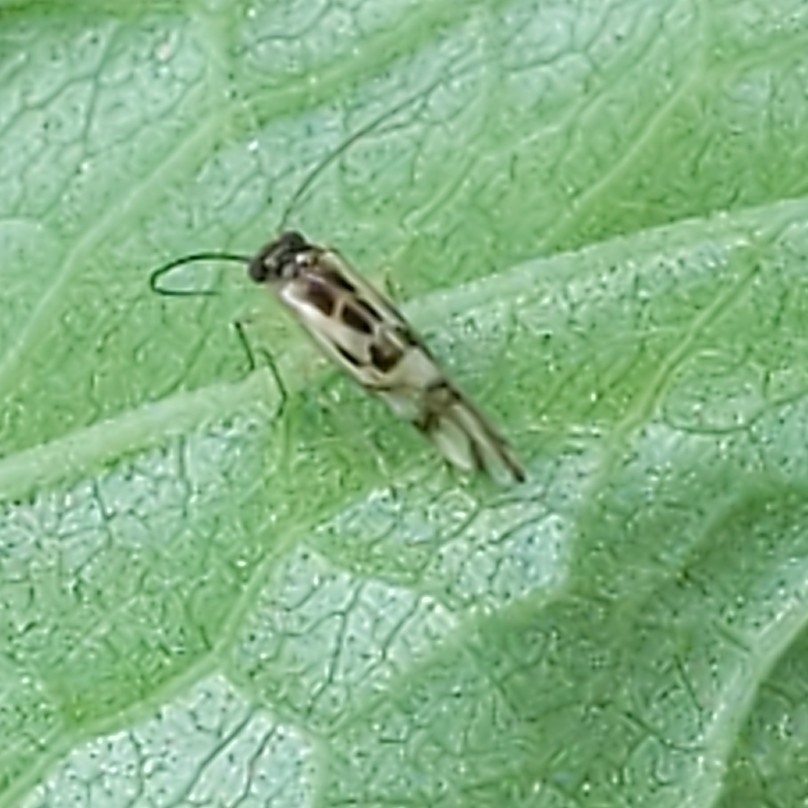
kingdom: Animalia
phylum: Arthropoda
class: Insecta
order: Psocodea
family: Stenopsocidae
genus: Graphopsocus
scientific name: Graphopsocus cruciatus
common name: Lizard bark louse
